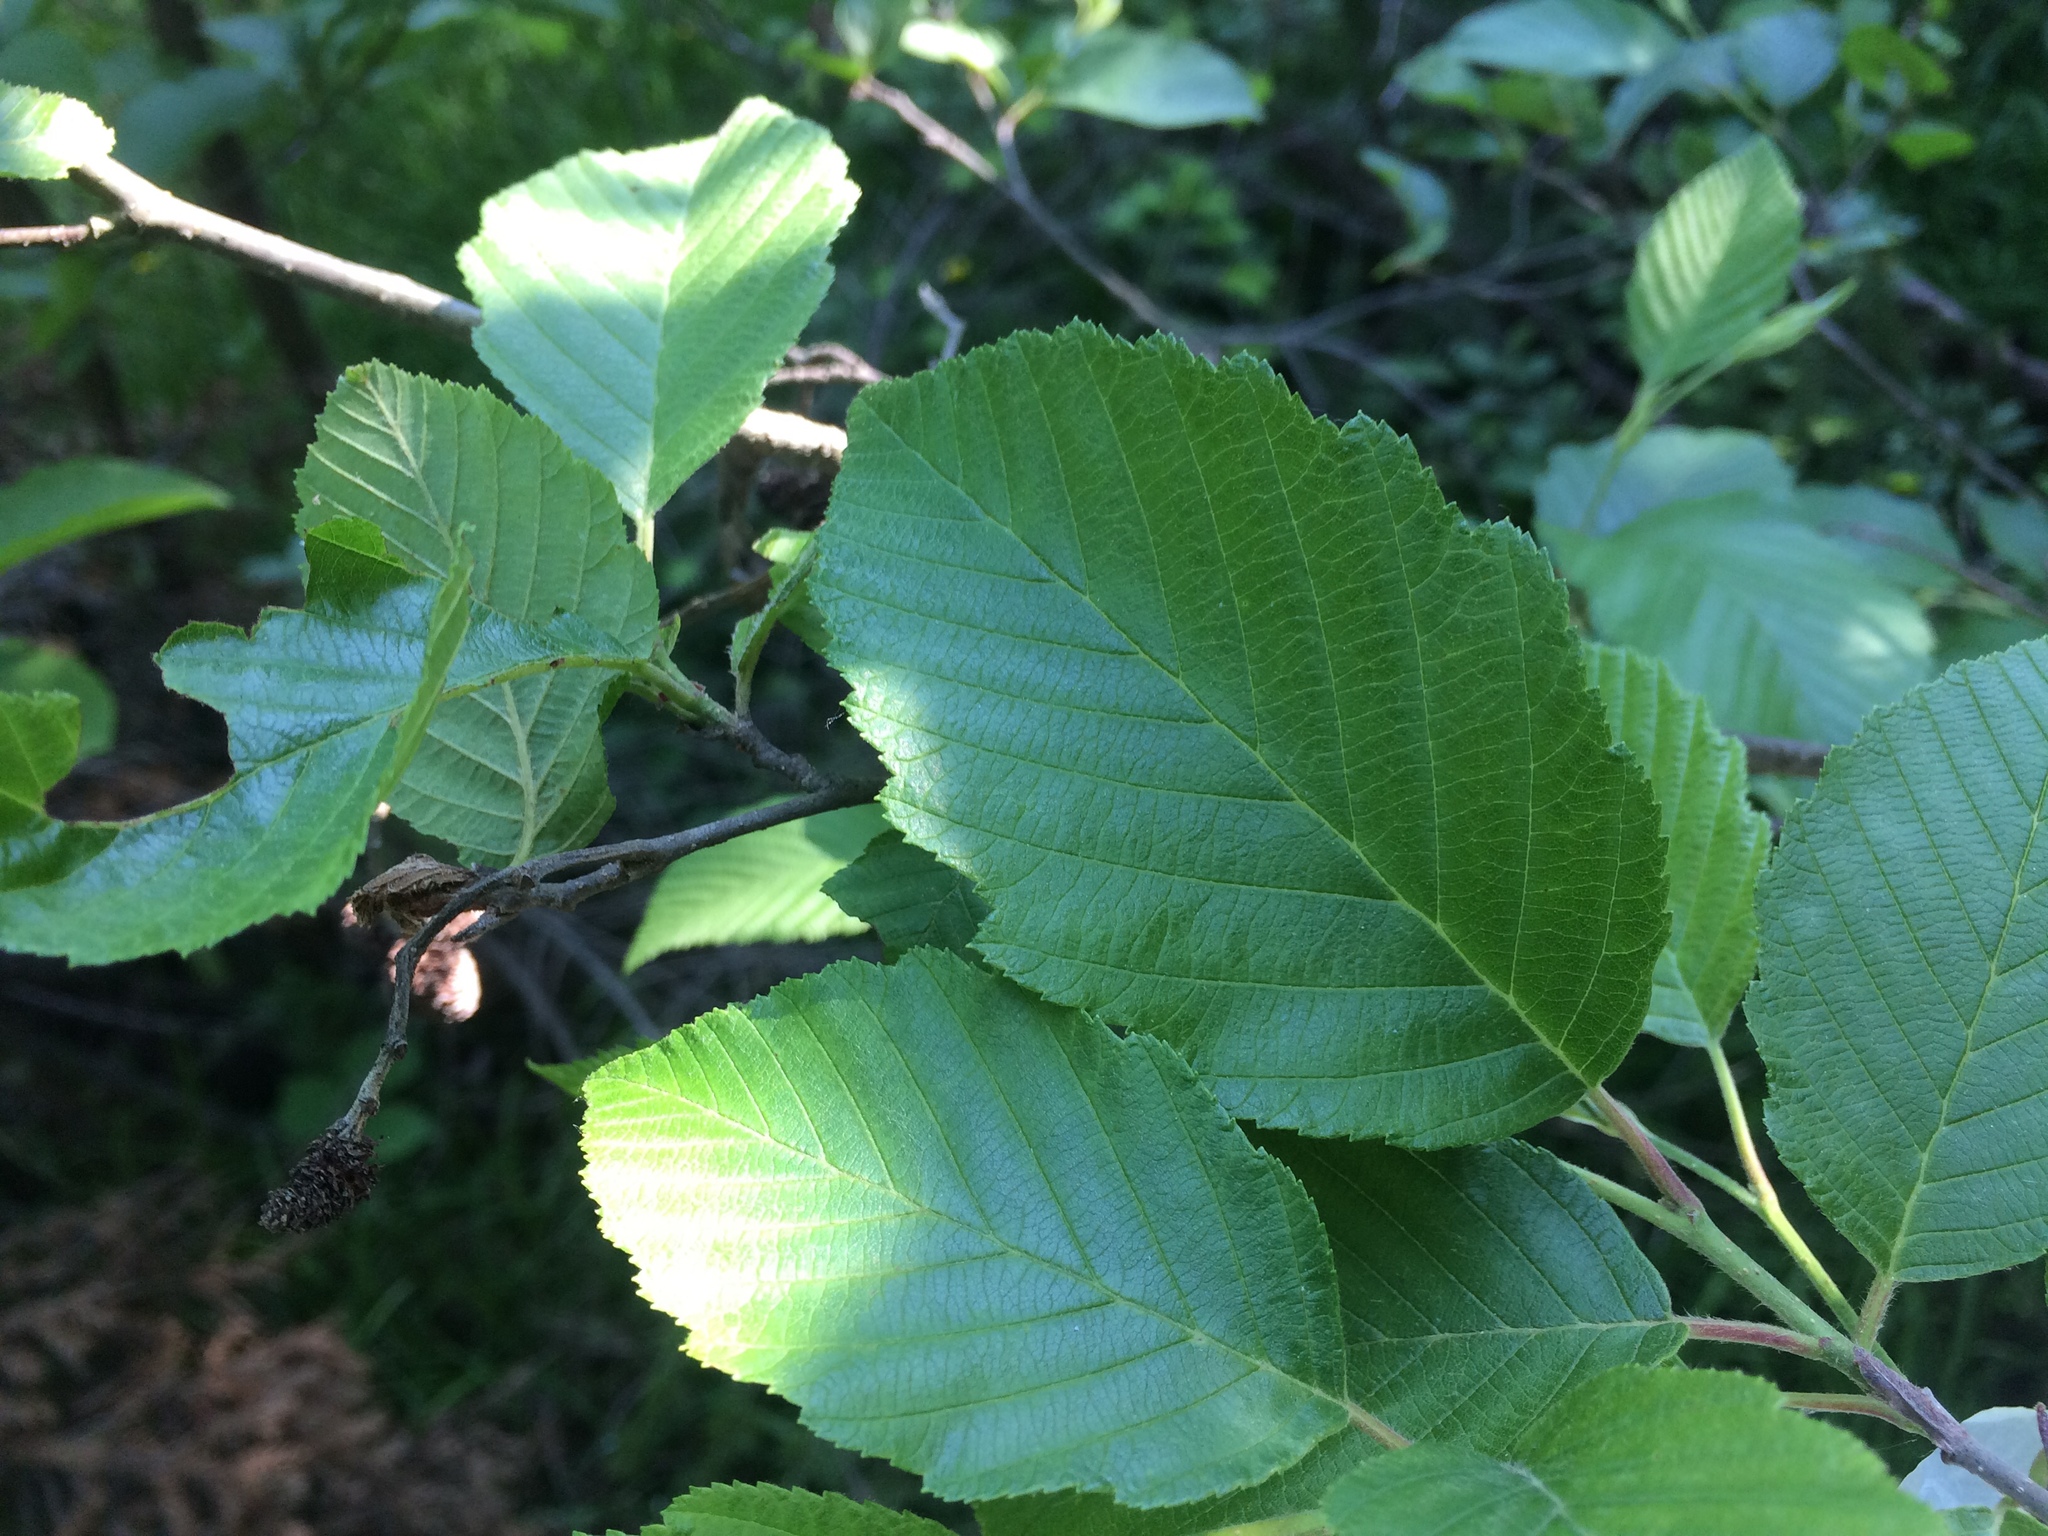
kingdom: Plantae
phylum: Tracheophyta
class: Magnoliopsida
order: Fagales
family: Betulaceae
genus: Alnus
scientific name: Alnus incana
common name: Grey alder
